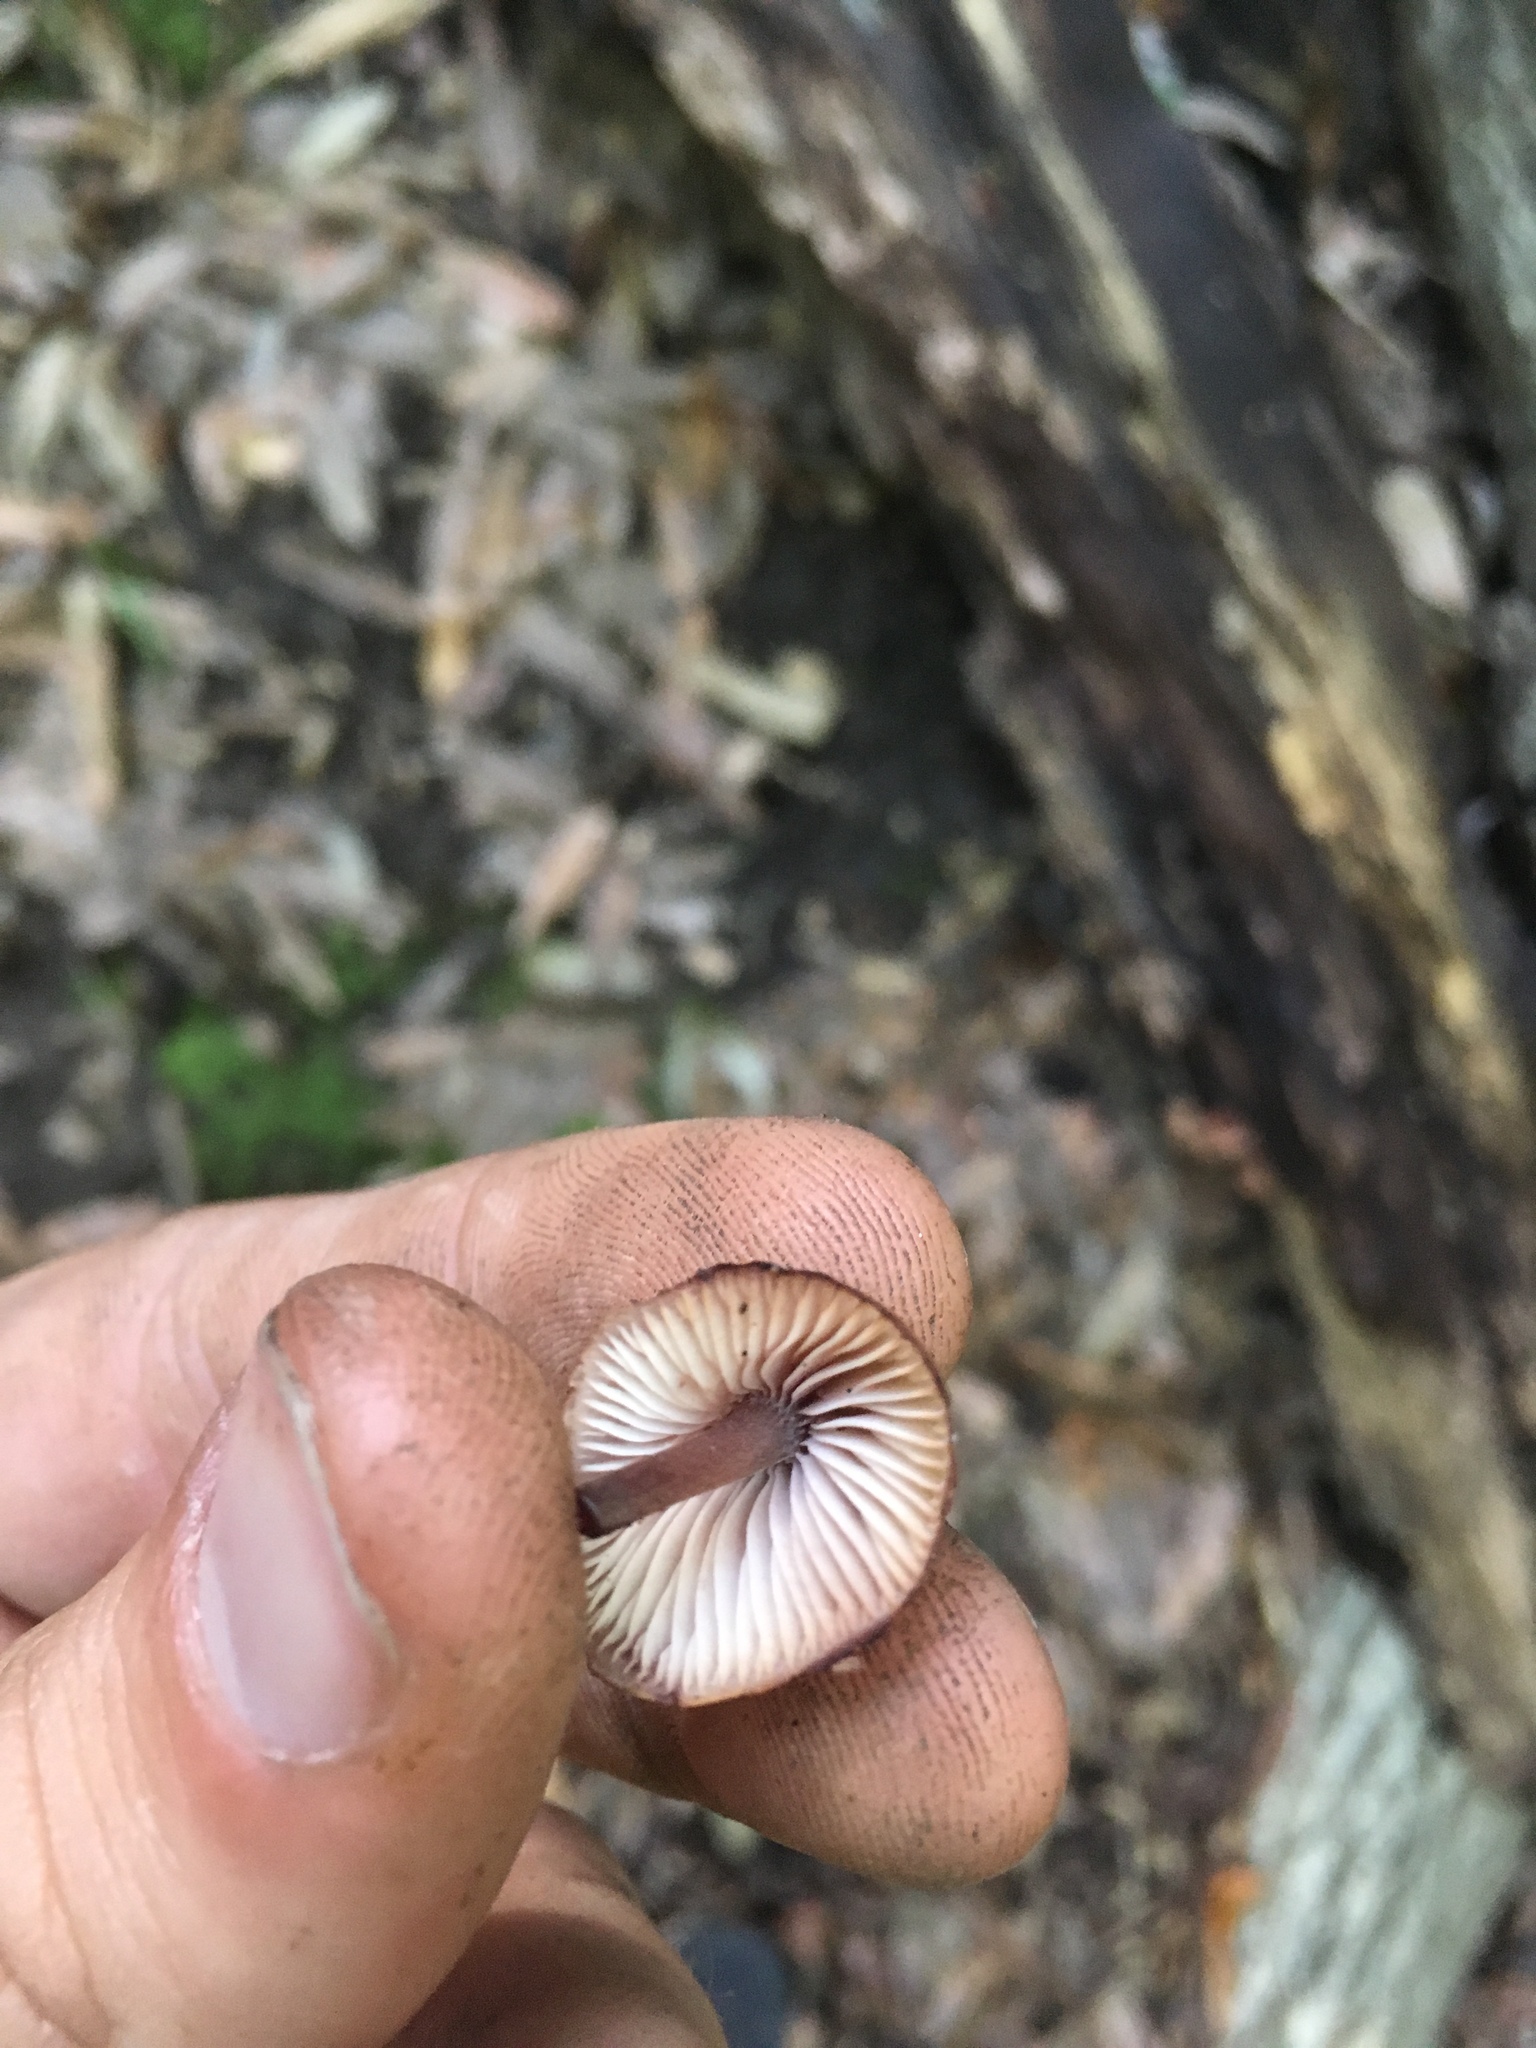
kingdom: Fungi
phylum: Basidiomycota
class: Agaricomycetes
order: Agaricales
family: Mycenaceae
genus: Mycena
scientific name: Mycena haematopus
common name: Burgundydrop bonnet
